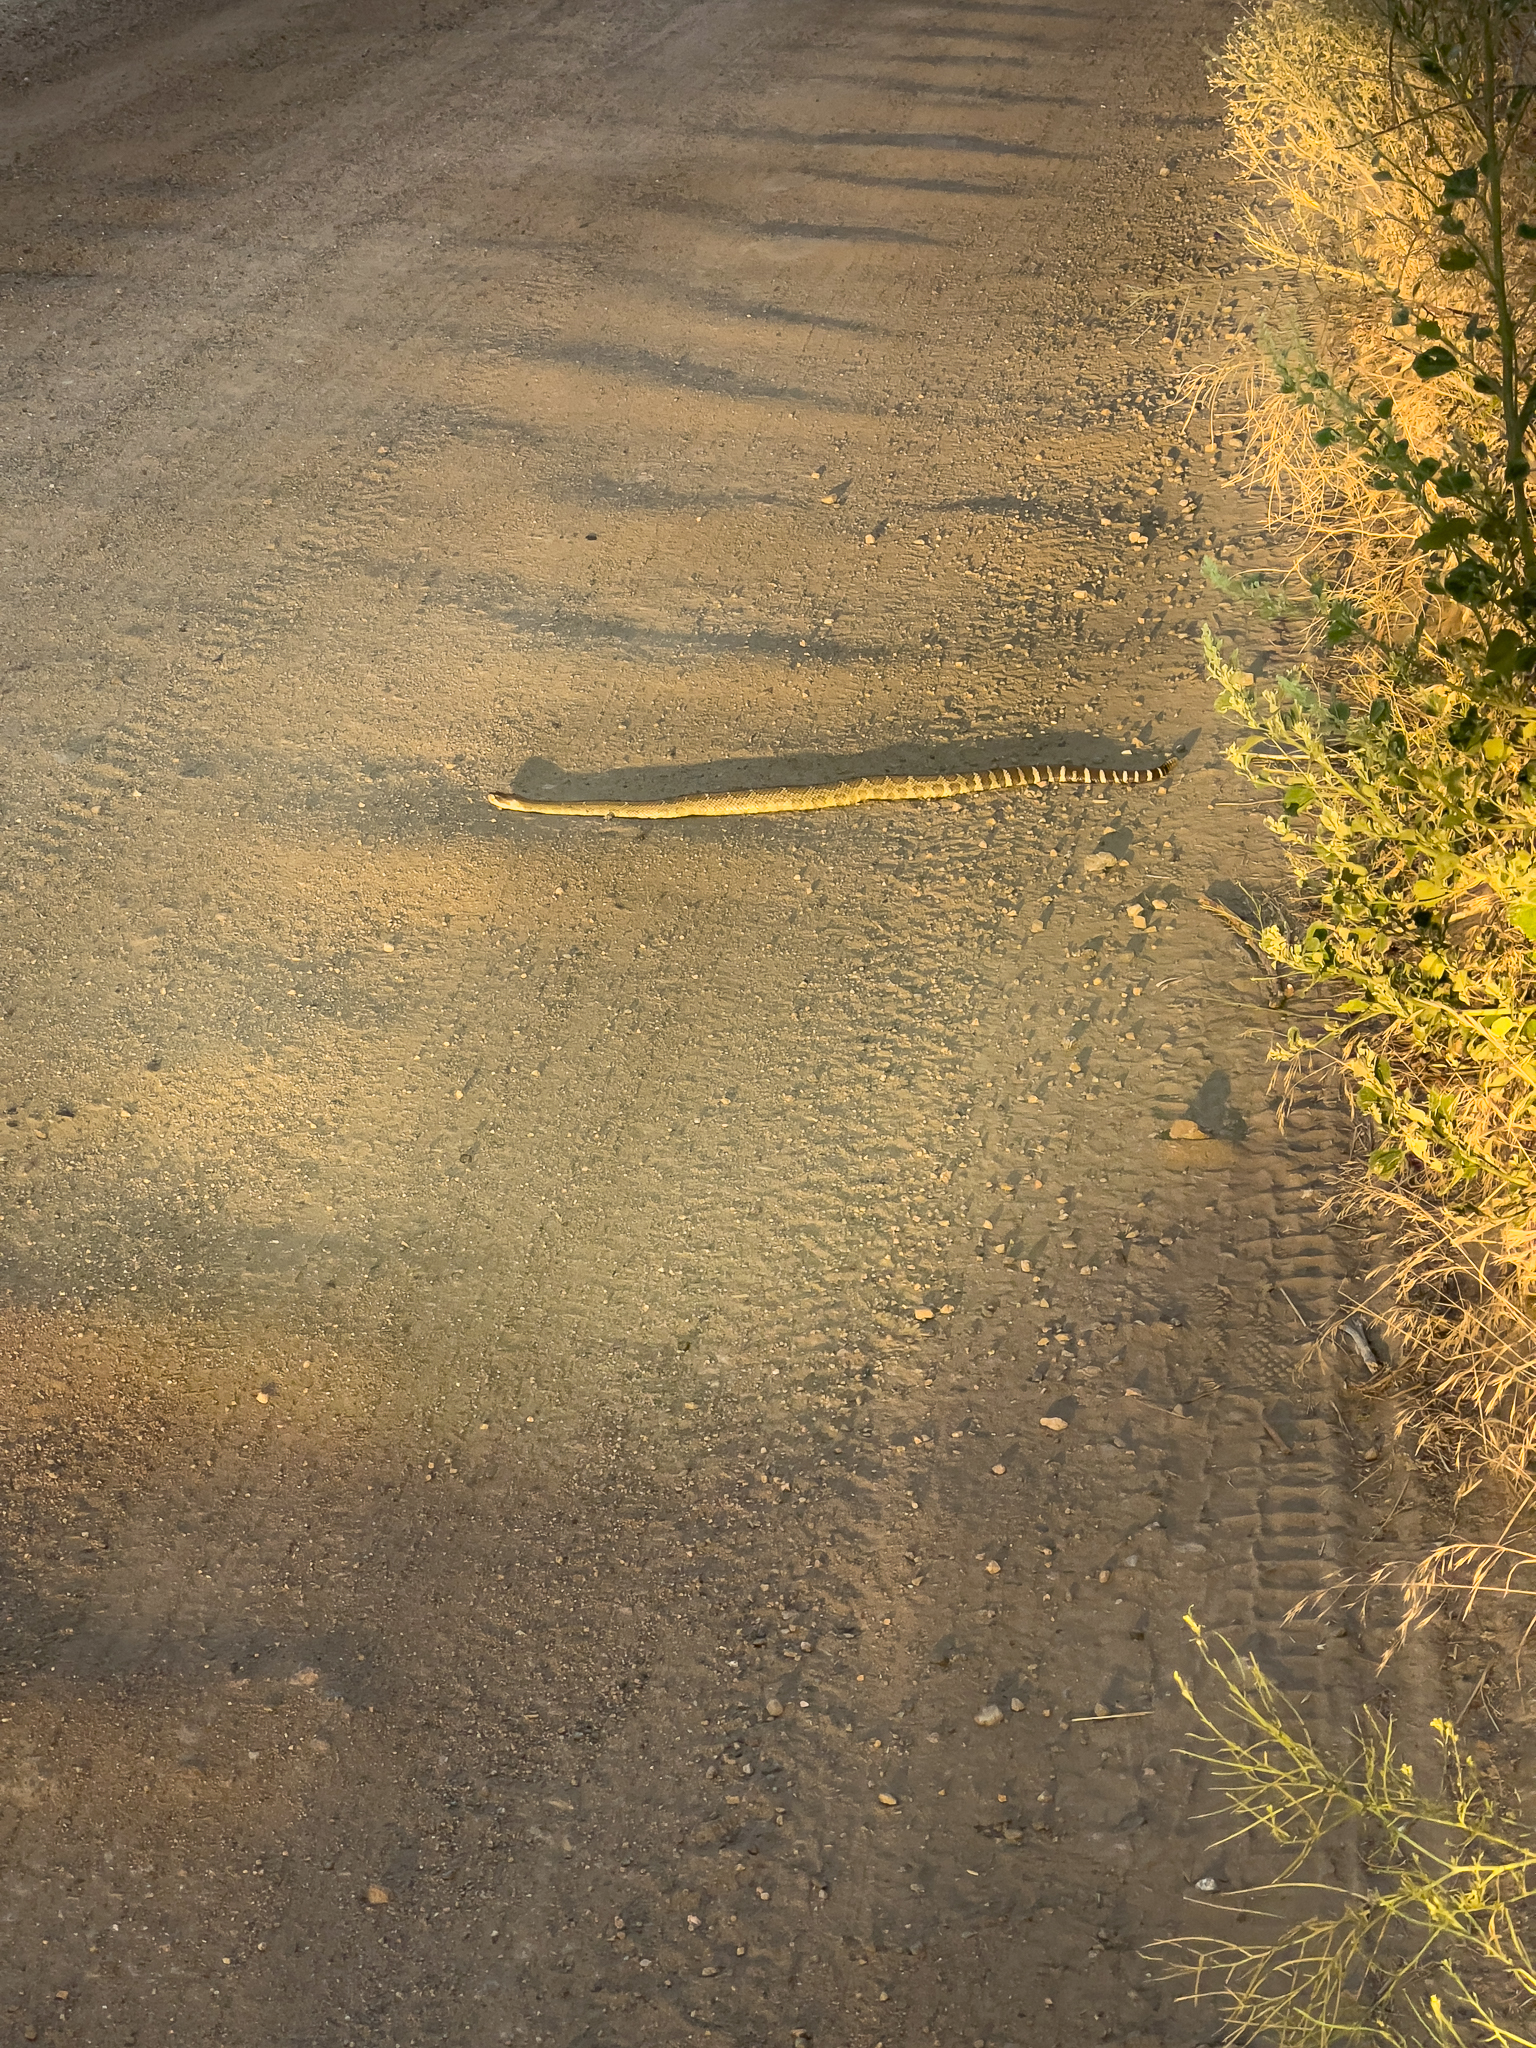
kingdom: Animalia
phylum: Chordata
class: Squamata
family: Viperidae
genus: Crotalus
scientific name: Crotalus oreganus
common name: Abyssus
